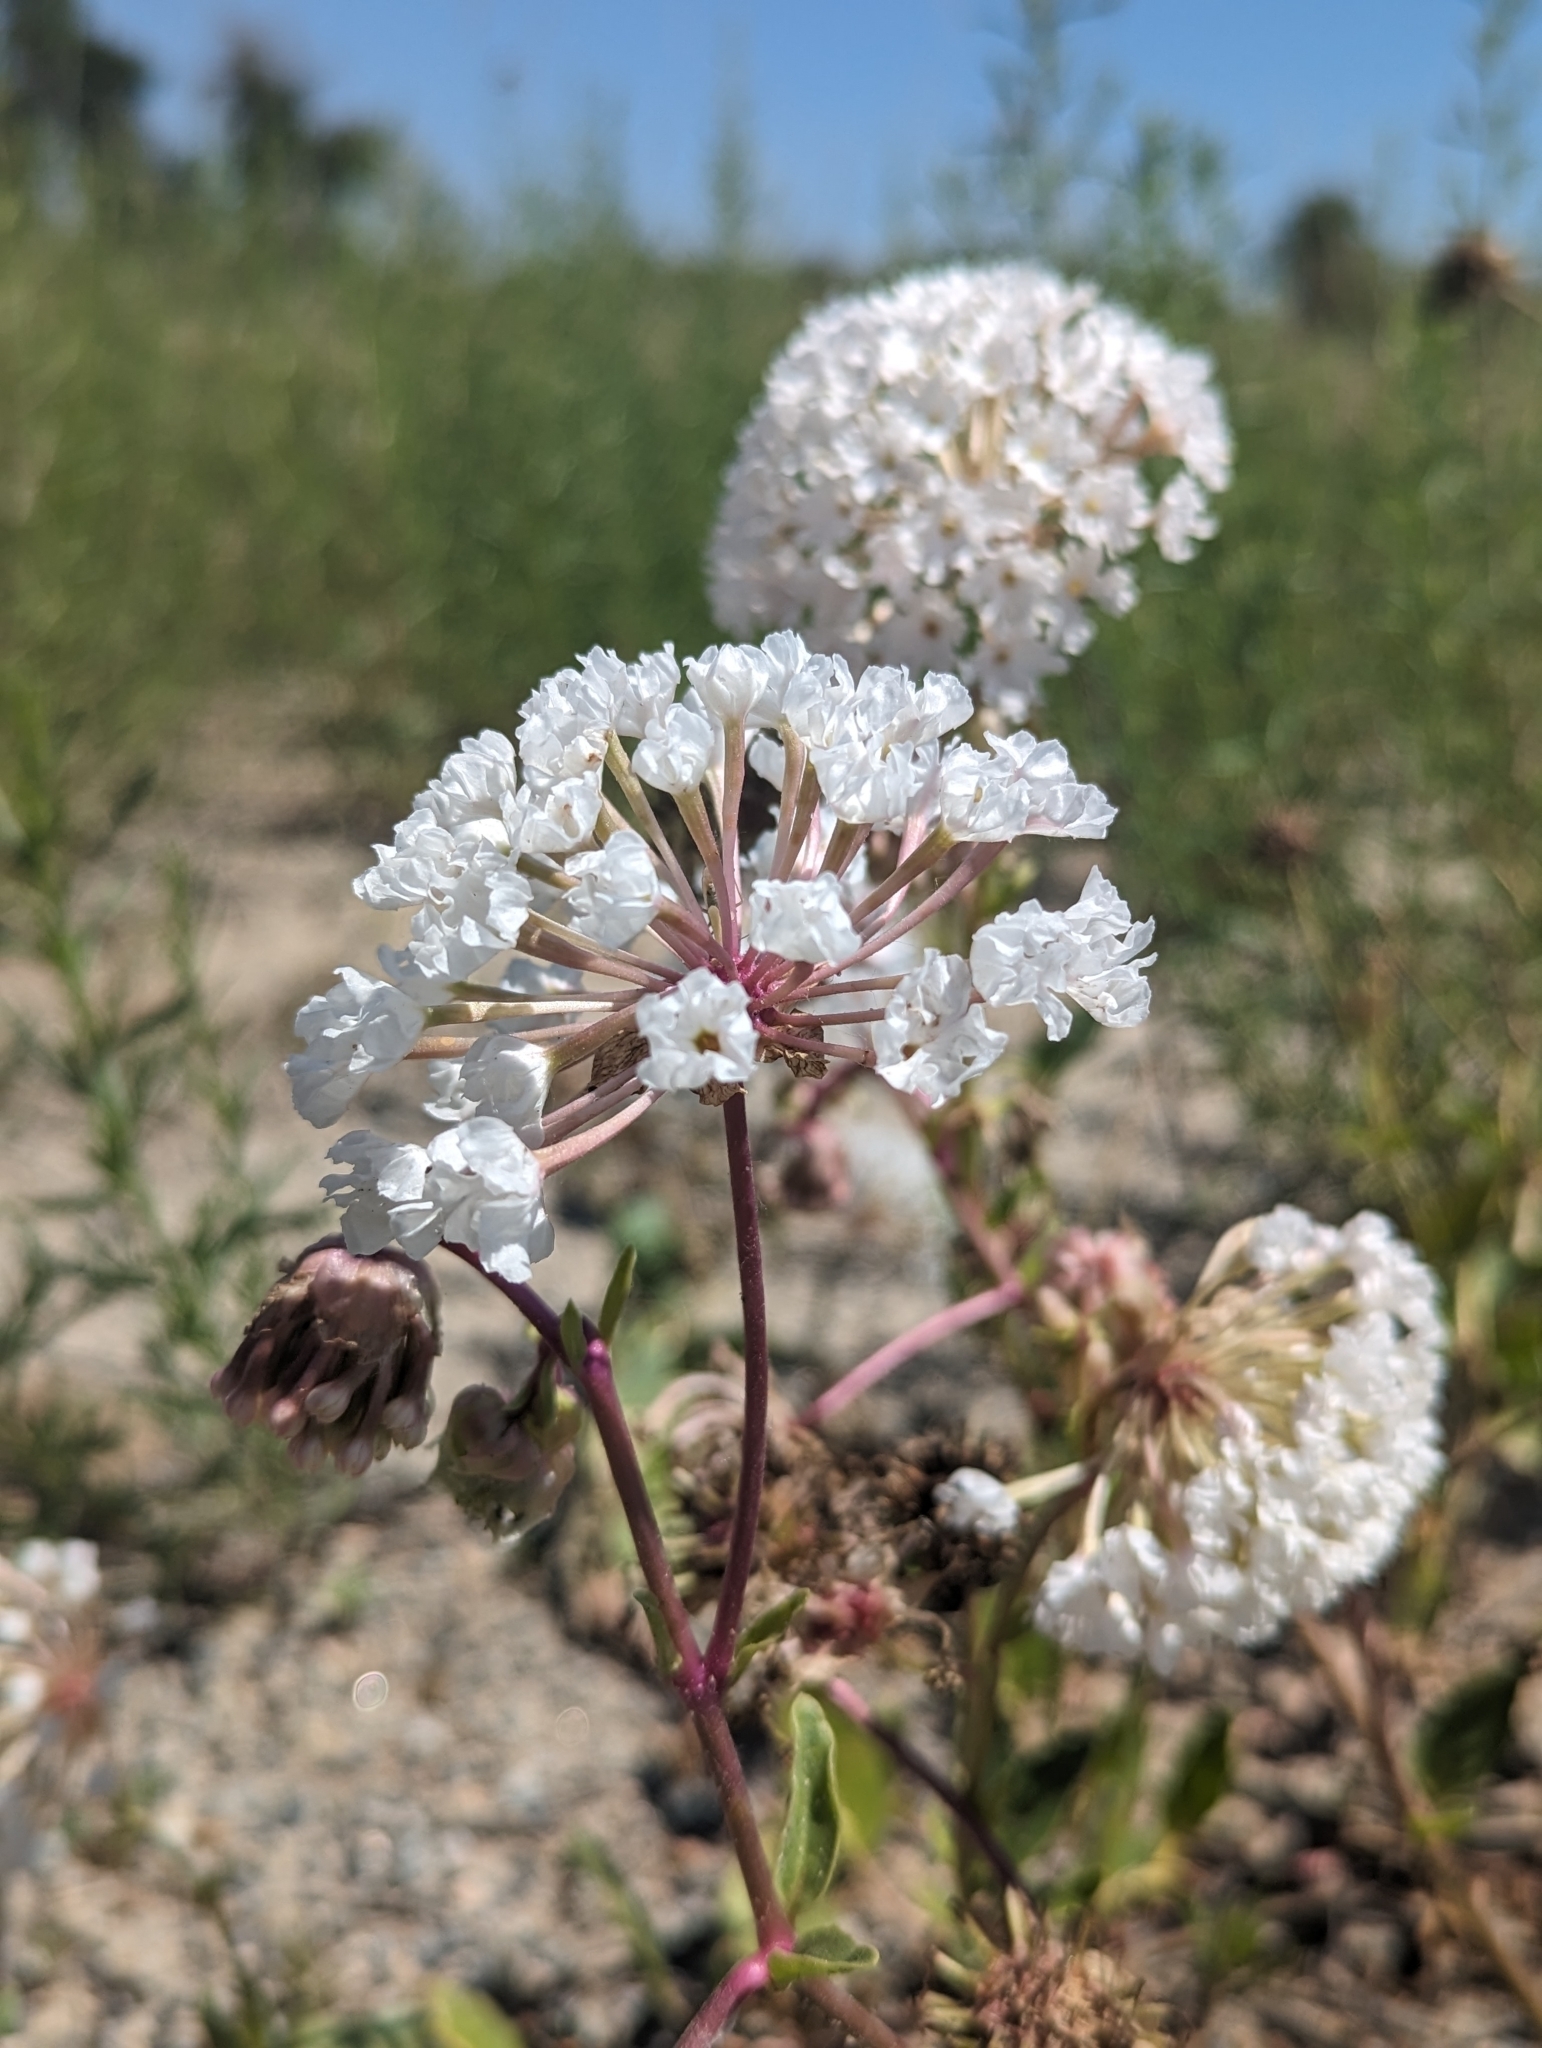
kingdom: Plantae
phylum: Tracheophyta
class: Magnoliopsida
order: Caryophyllales
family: Nyctaginaceae
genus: Abronia
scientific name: Abronia fragrans
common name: Fragrant sand-verbena
